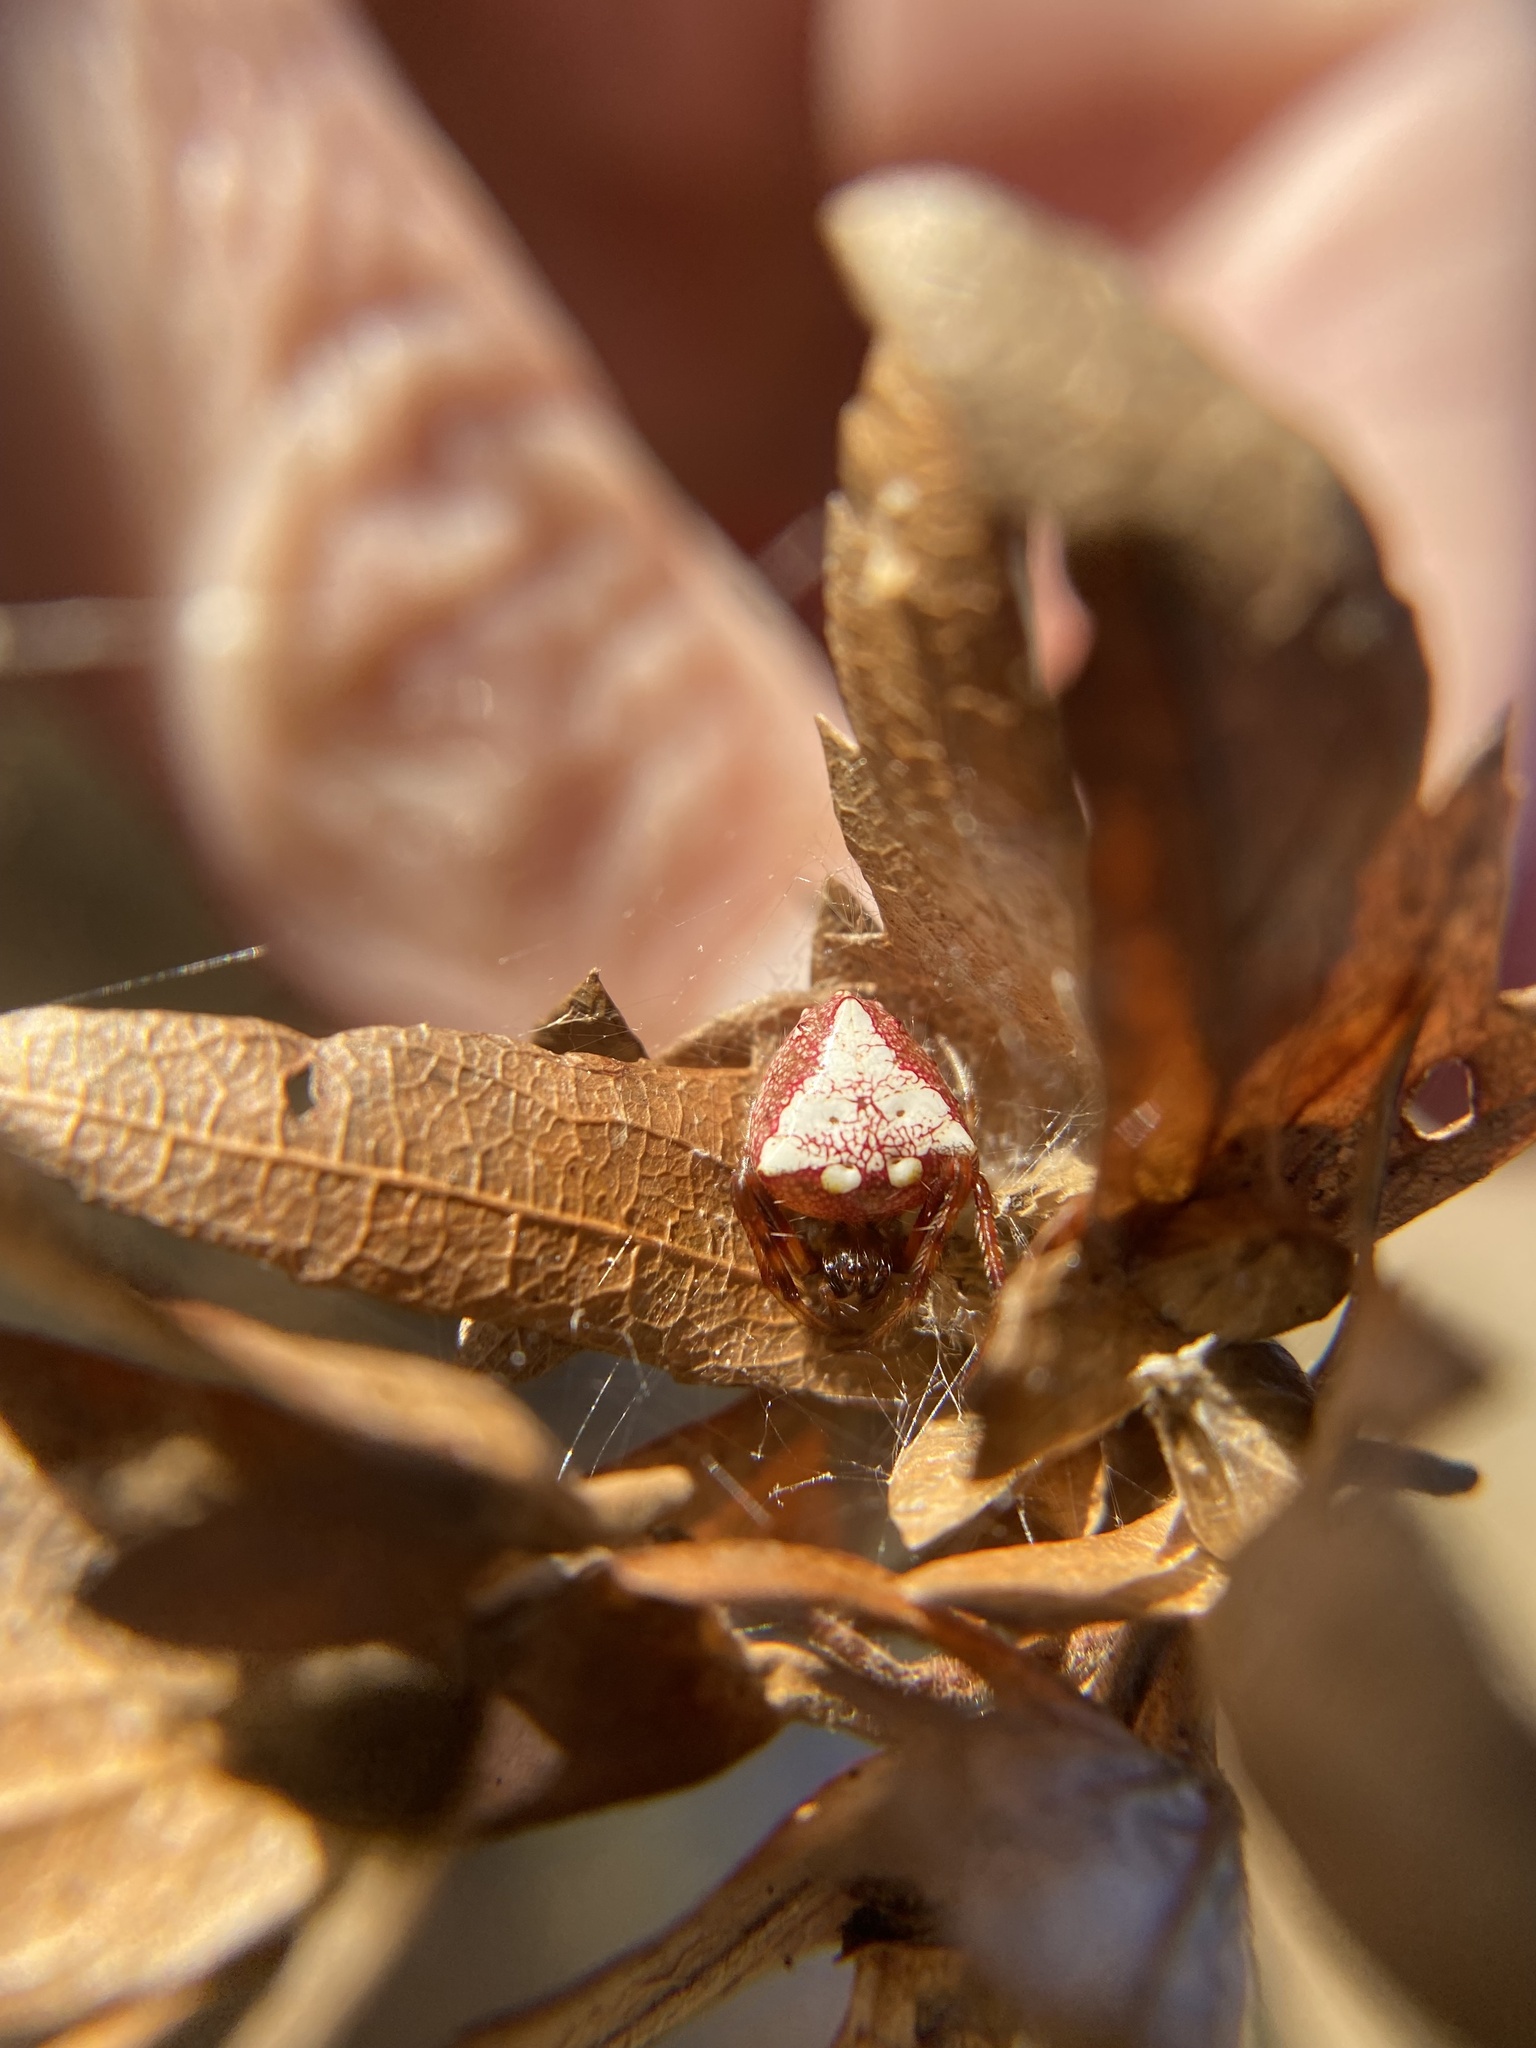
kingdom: Animalia
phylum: Arthropoda
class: Arachnida
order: Araneae
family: Araneidae
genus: Verrucosa
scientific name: Verrucosa arenata
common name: Orb weavers
